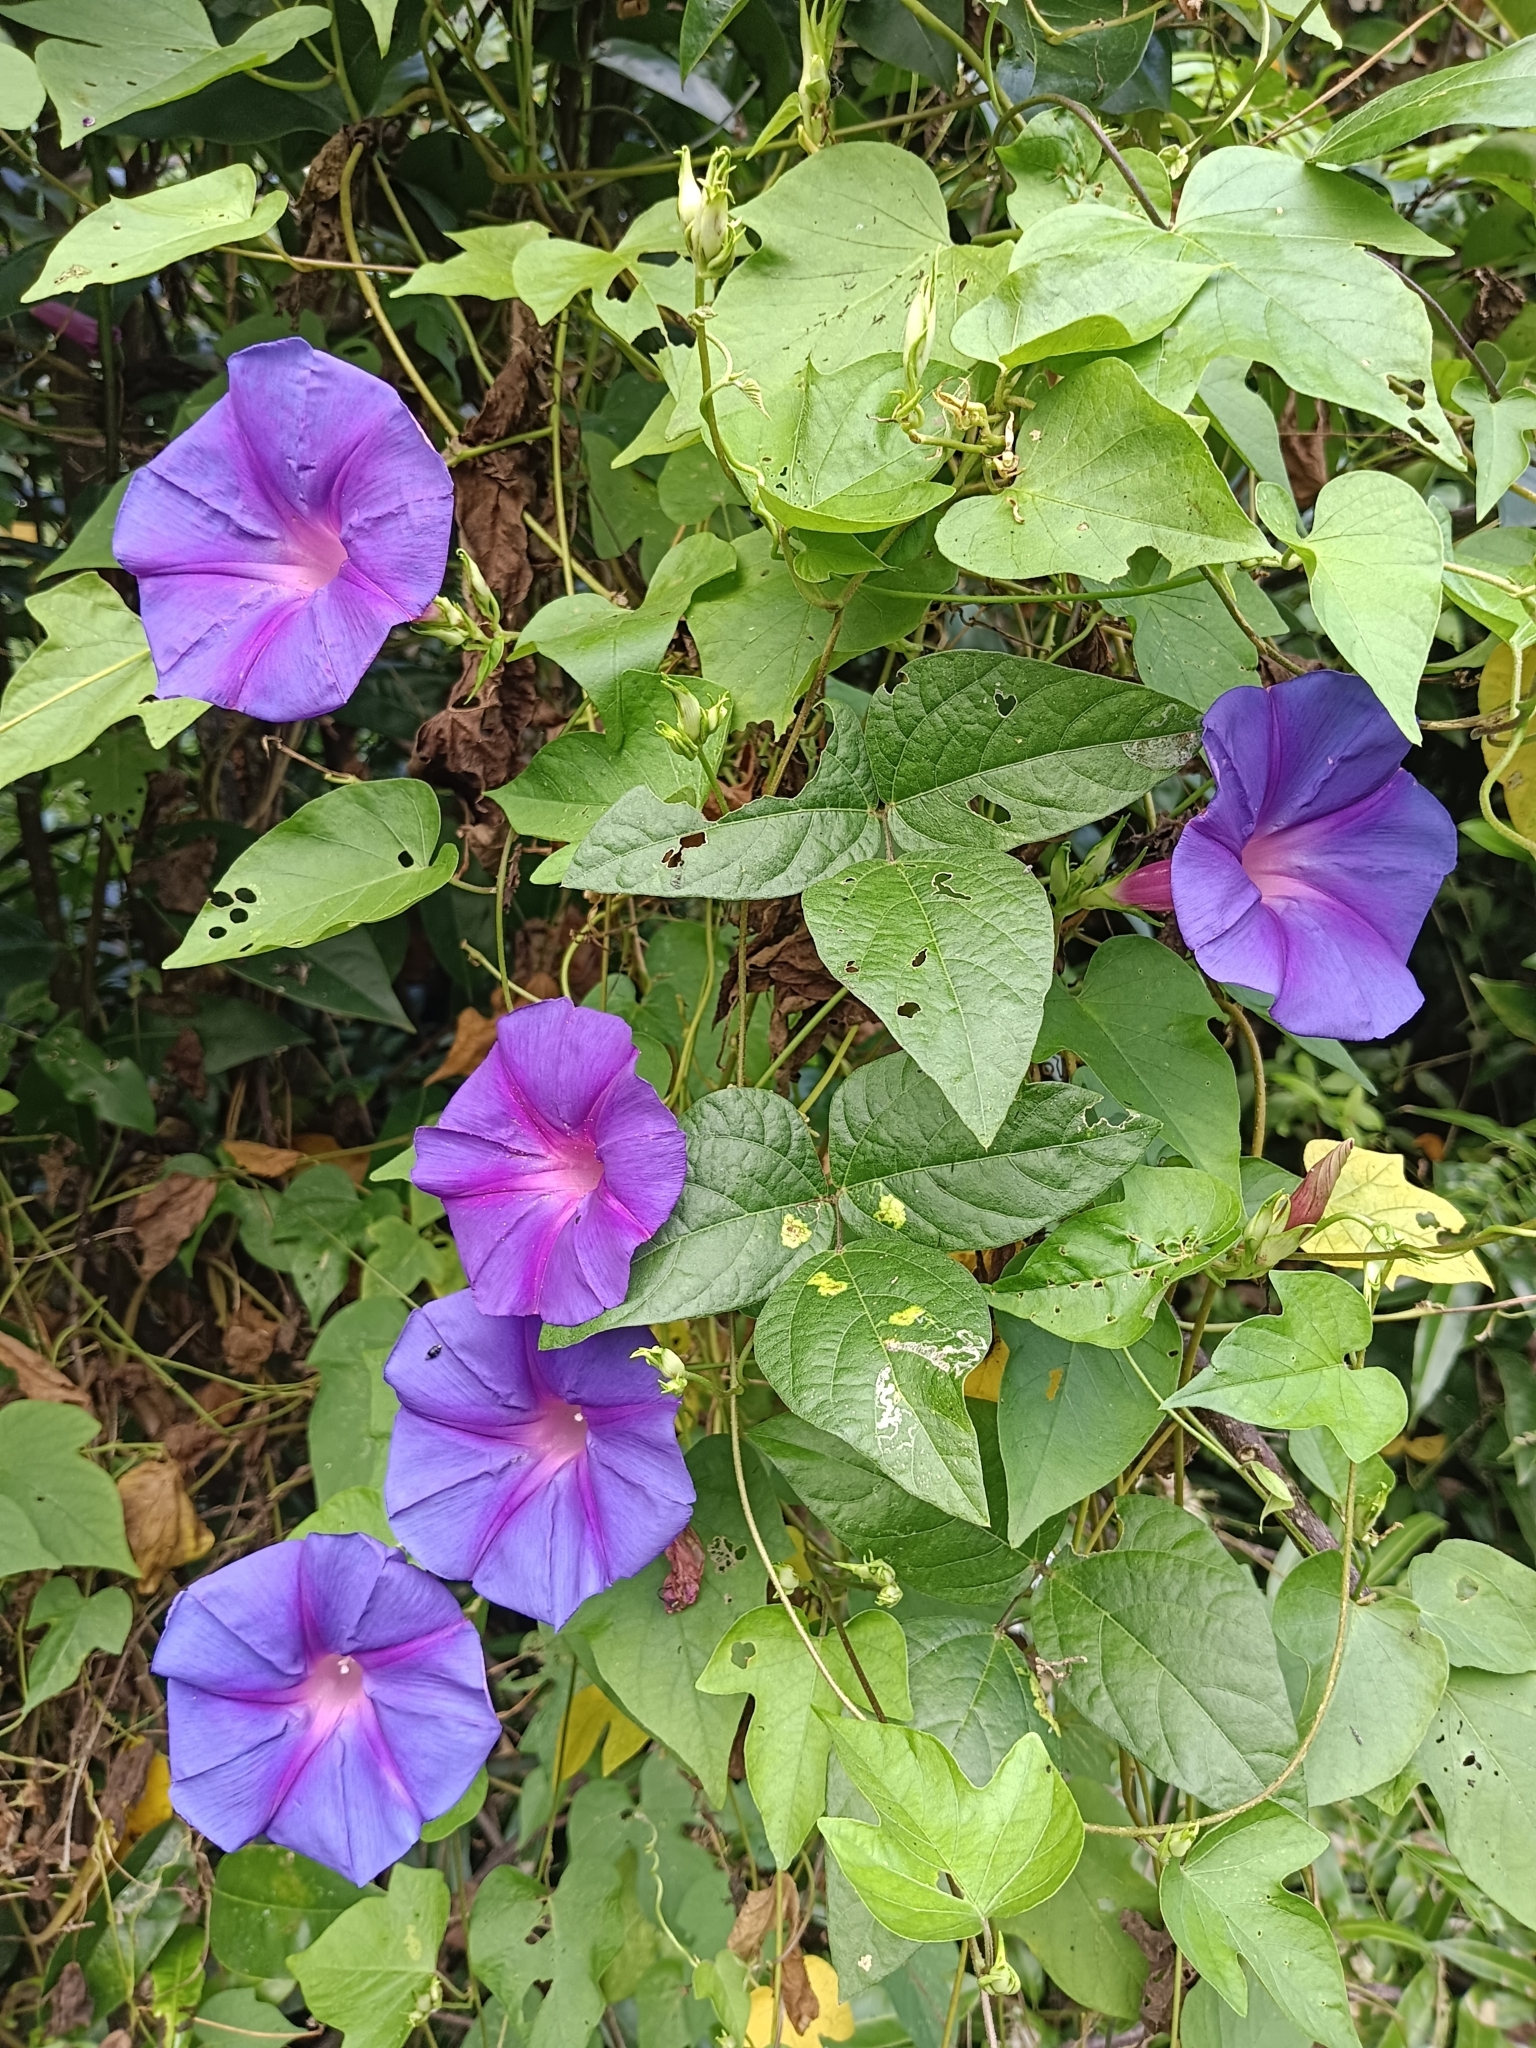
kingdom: Plantae
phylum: Tracheophyta
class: Magnoliopsida
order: Solanales
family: Convolvulaceae
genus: Ipomoea
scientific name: Ipomoea indica
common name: Blue dawnflower
